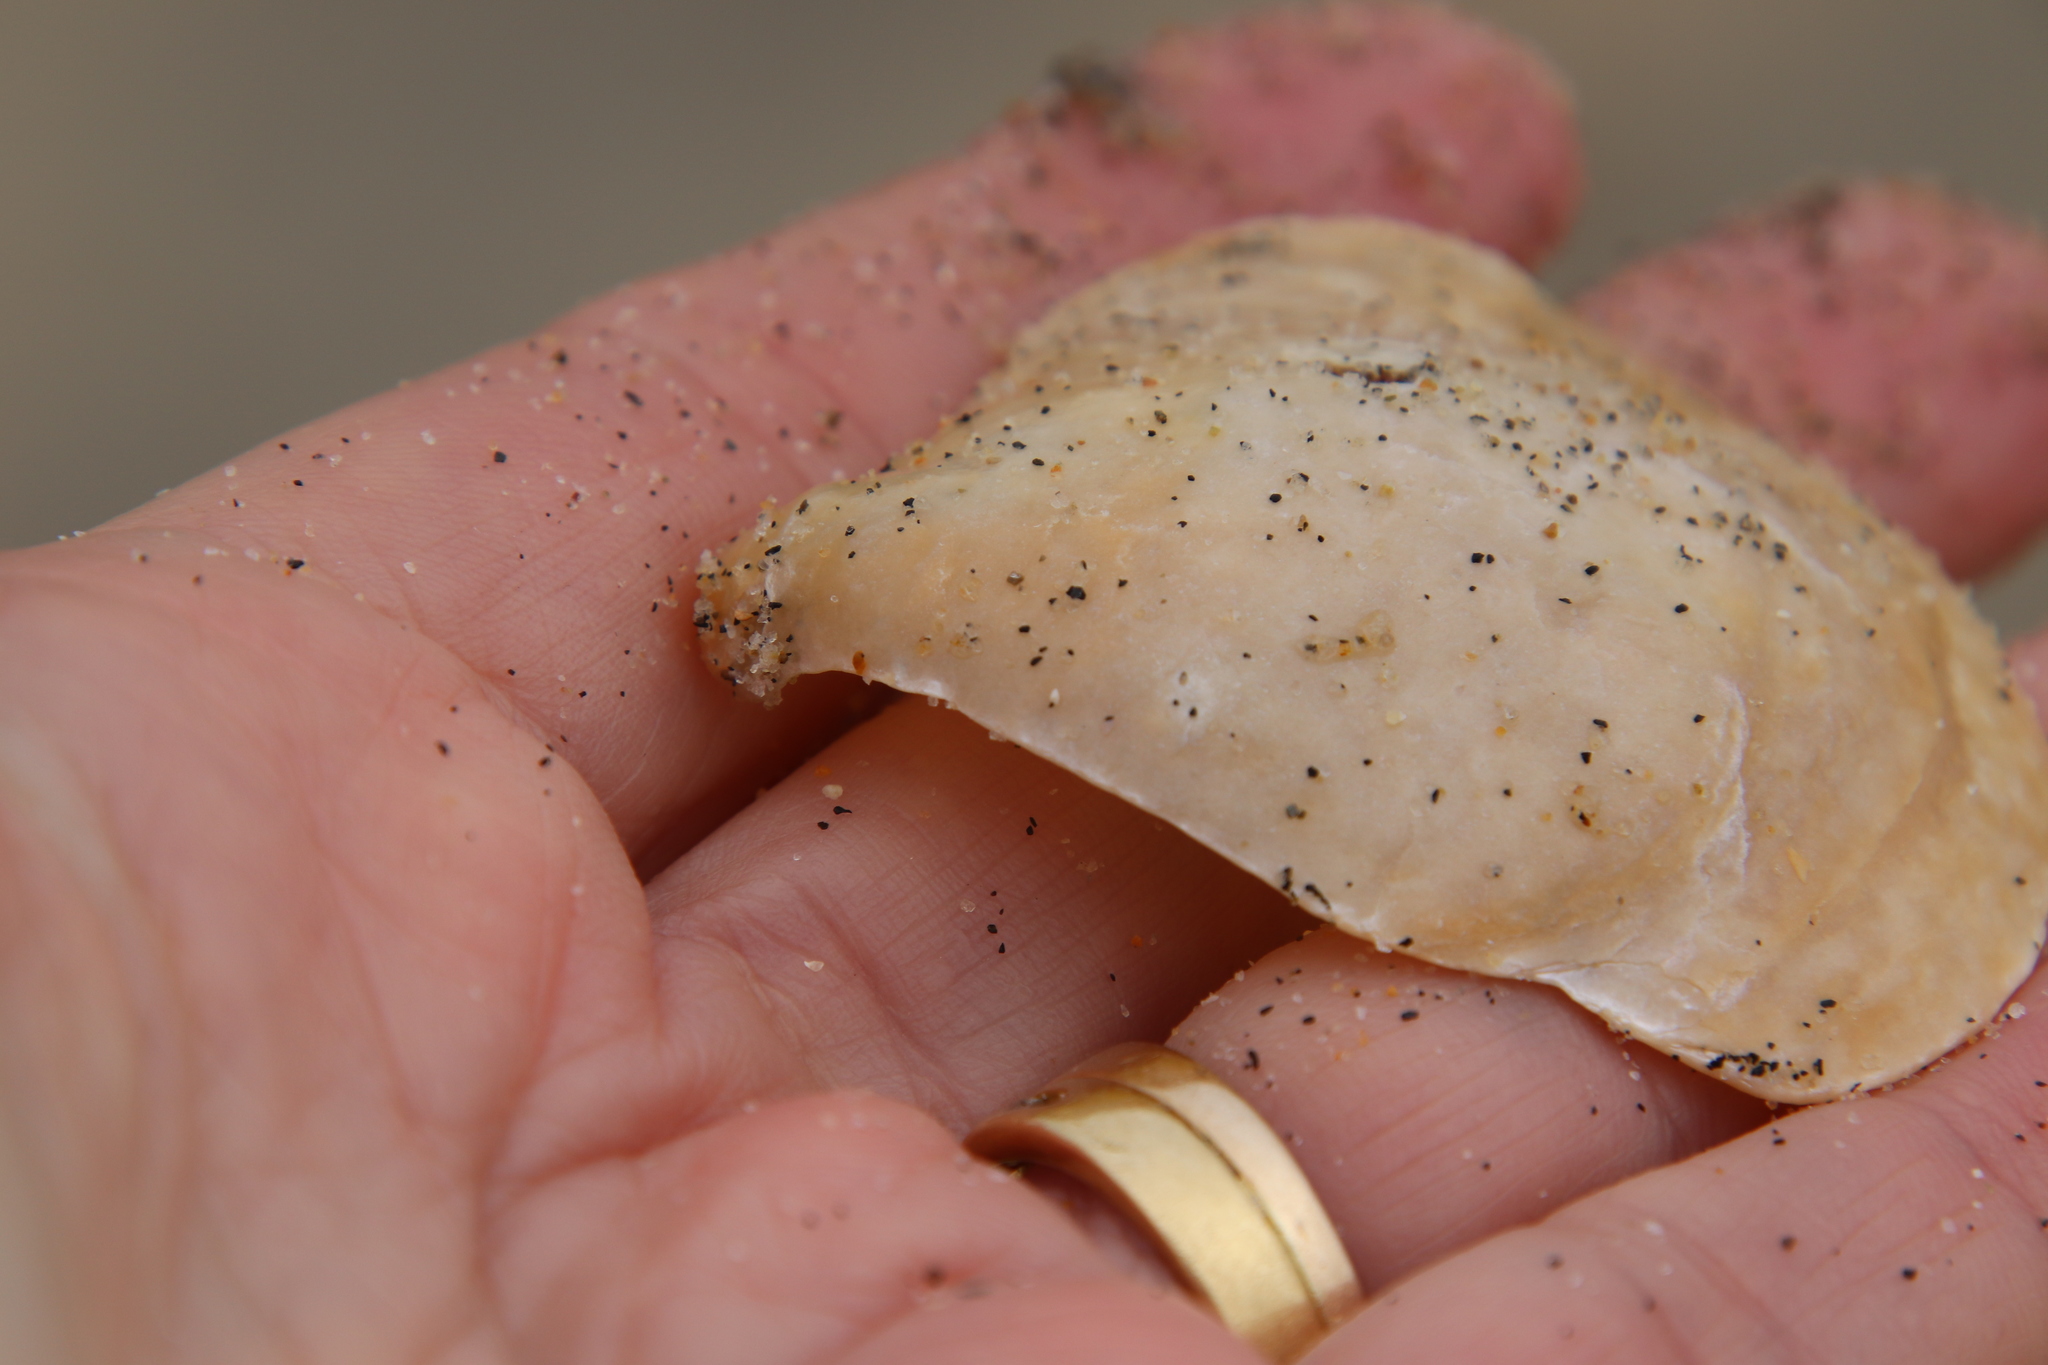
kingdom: Animalia
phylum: Mollusca
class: Bivalvia
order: Pectinida
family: Anomiidae
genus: Anomia
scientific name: Anomia peruviana
